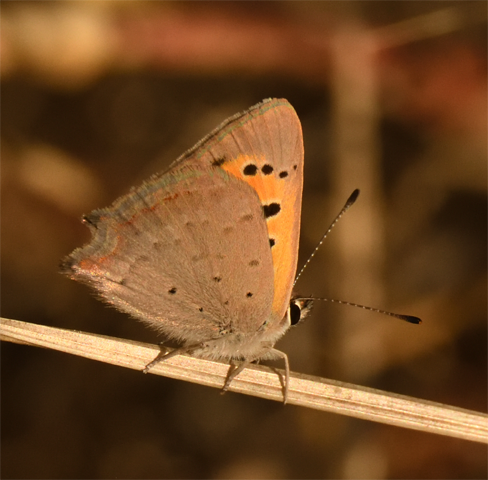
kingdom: Animalia
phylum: Arthropoda
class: Insecta
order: Lepidoptera
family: Lycaenidae
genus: Lycaena
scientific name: Lycaena phlaeas
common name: Small copper
